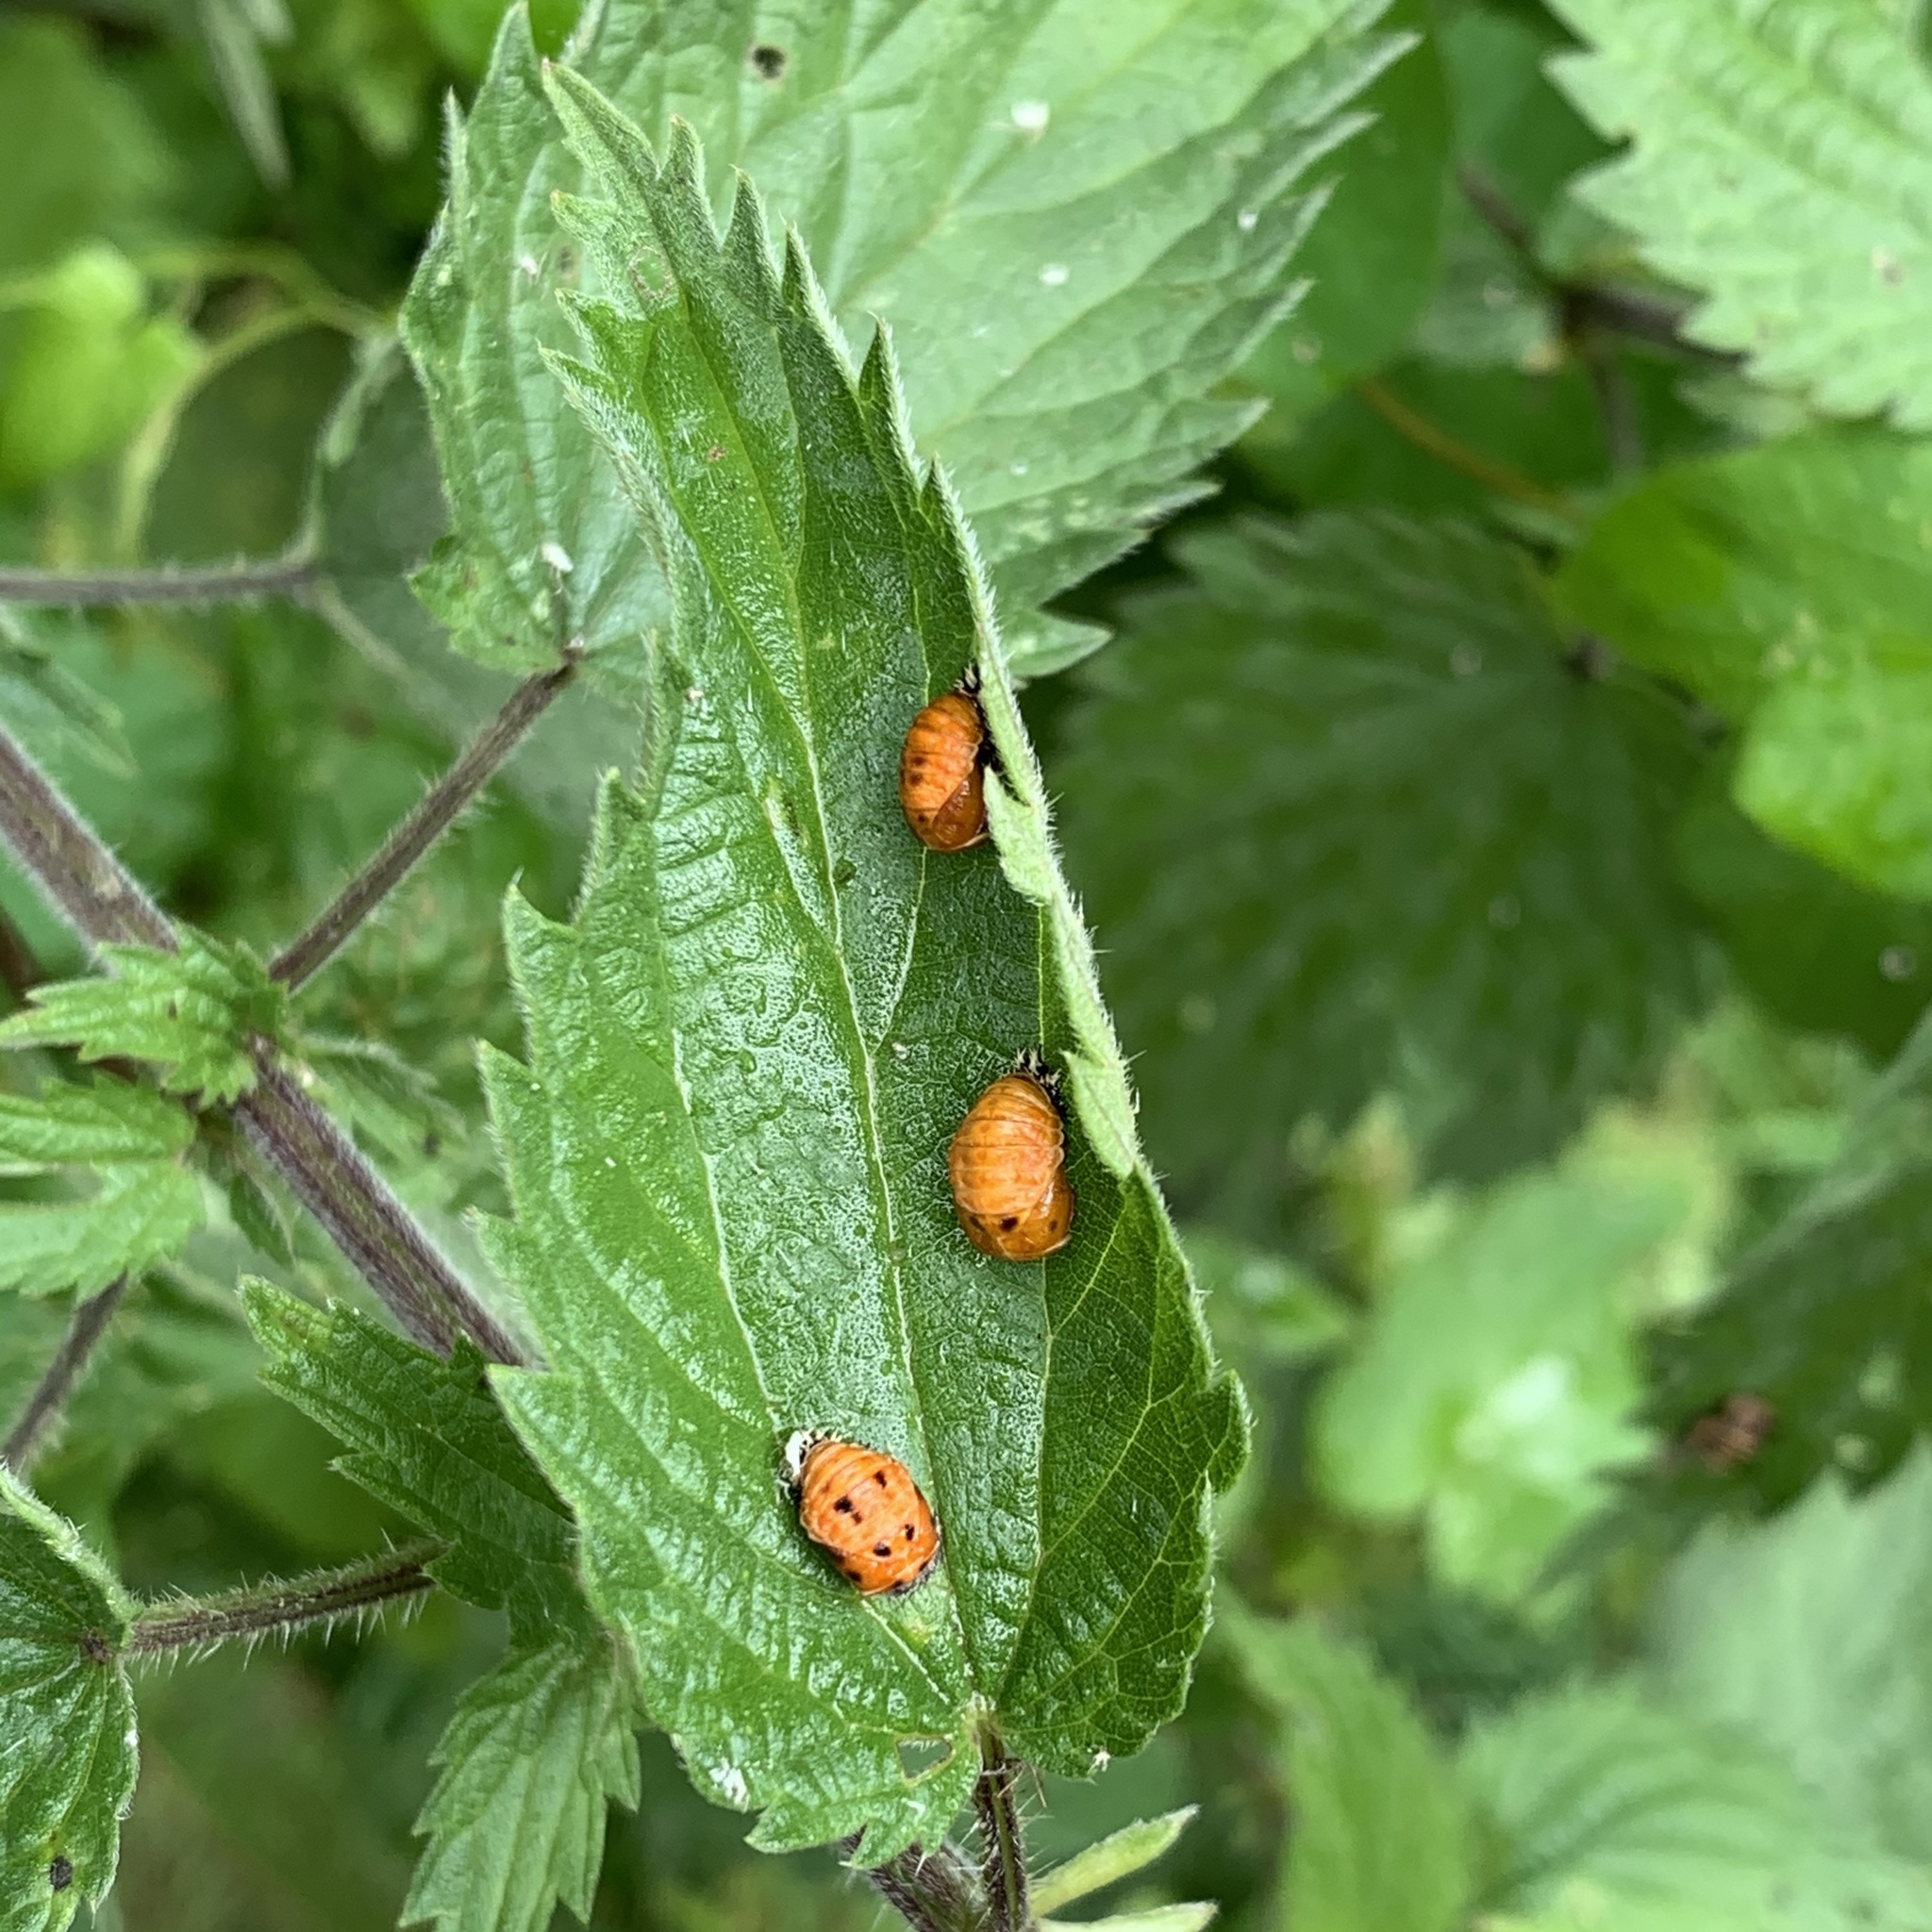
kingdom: Animalia
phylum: Arthropoda
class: Insecta
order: Coleoptera
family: Coccinellidae
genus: Harmonia
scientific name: Harmonia axyridis
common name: Harlequin ladybird
